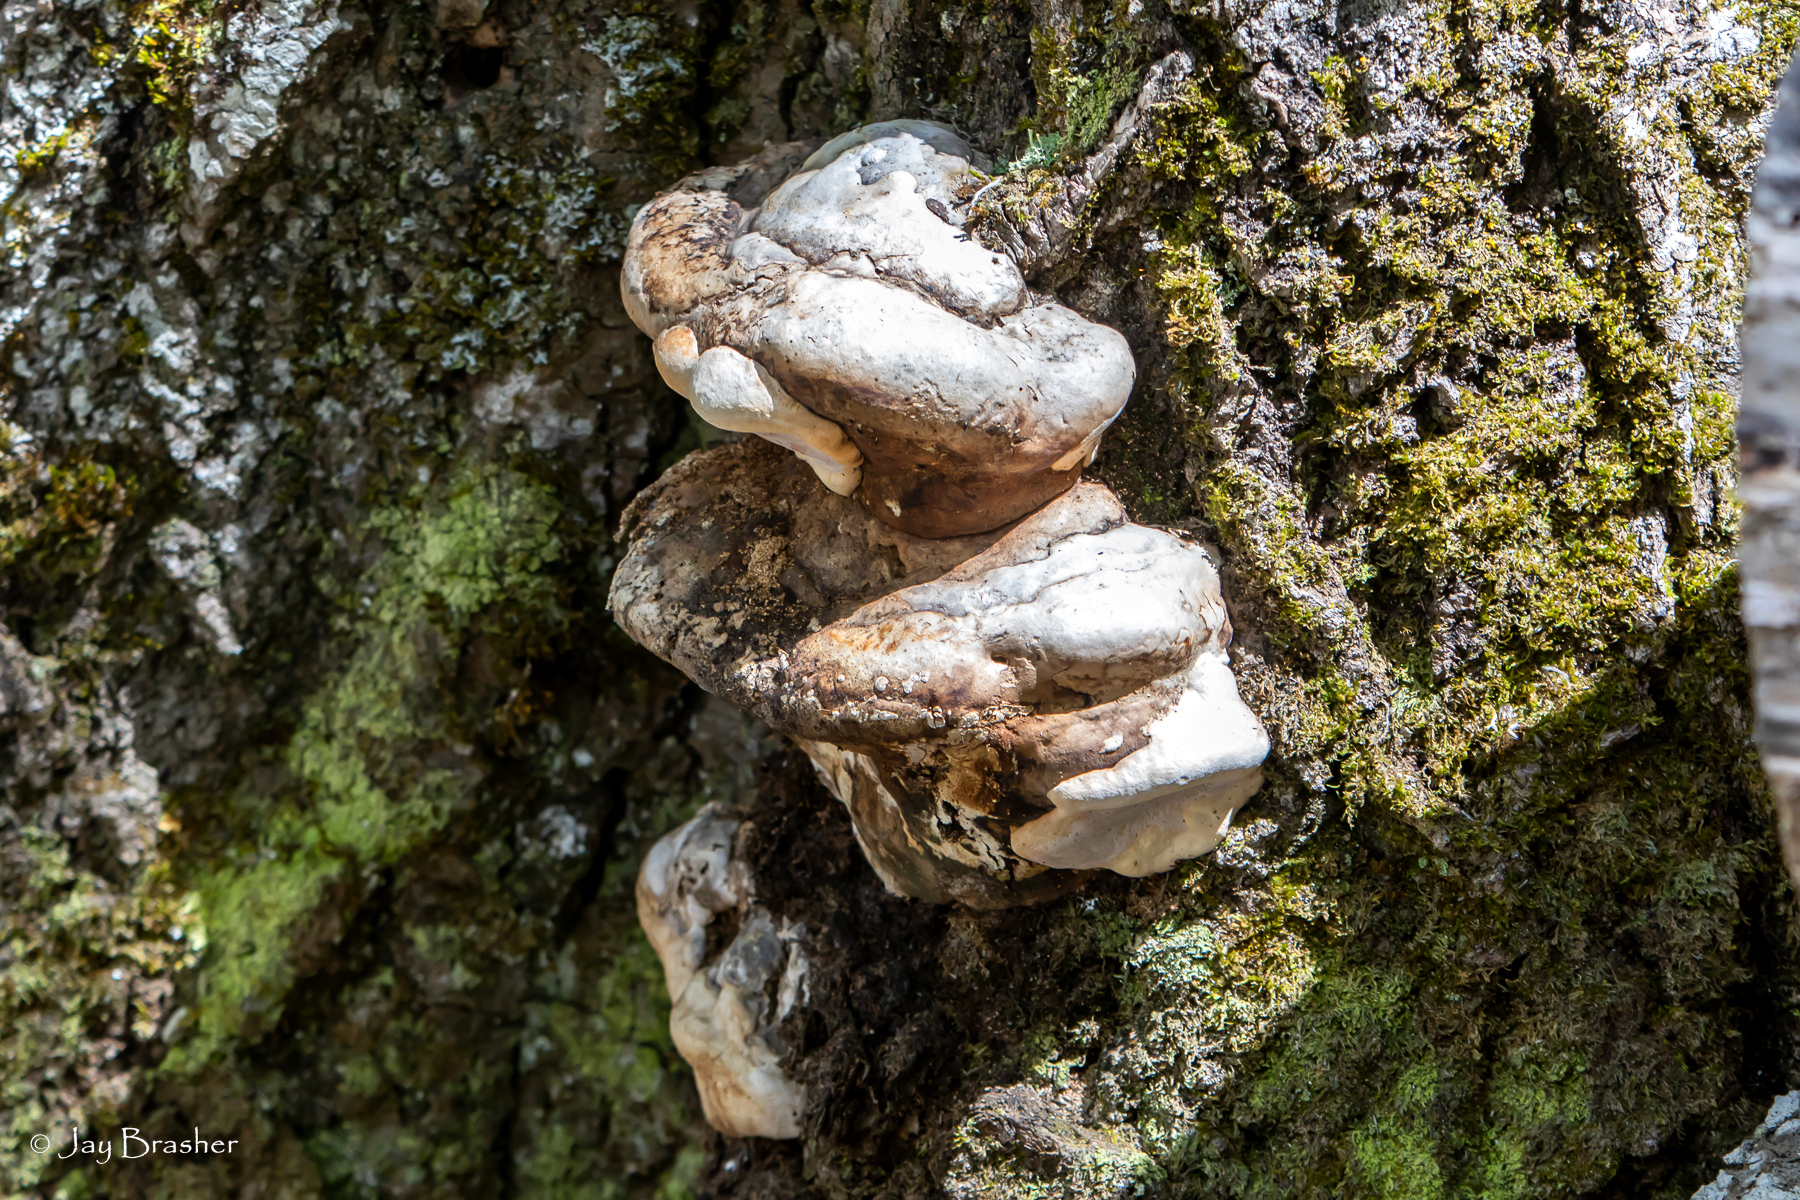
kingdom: Fungi
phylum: Basidiomycota
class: Agaricomycetes
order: Polyporales
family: Polyporaceae
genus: Fomes
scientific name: Fomes fomentarius
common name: Hoof fungus
